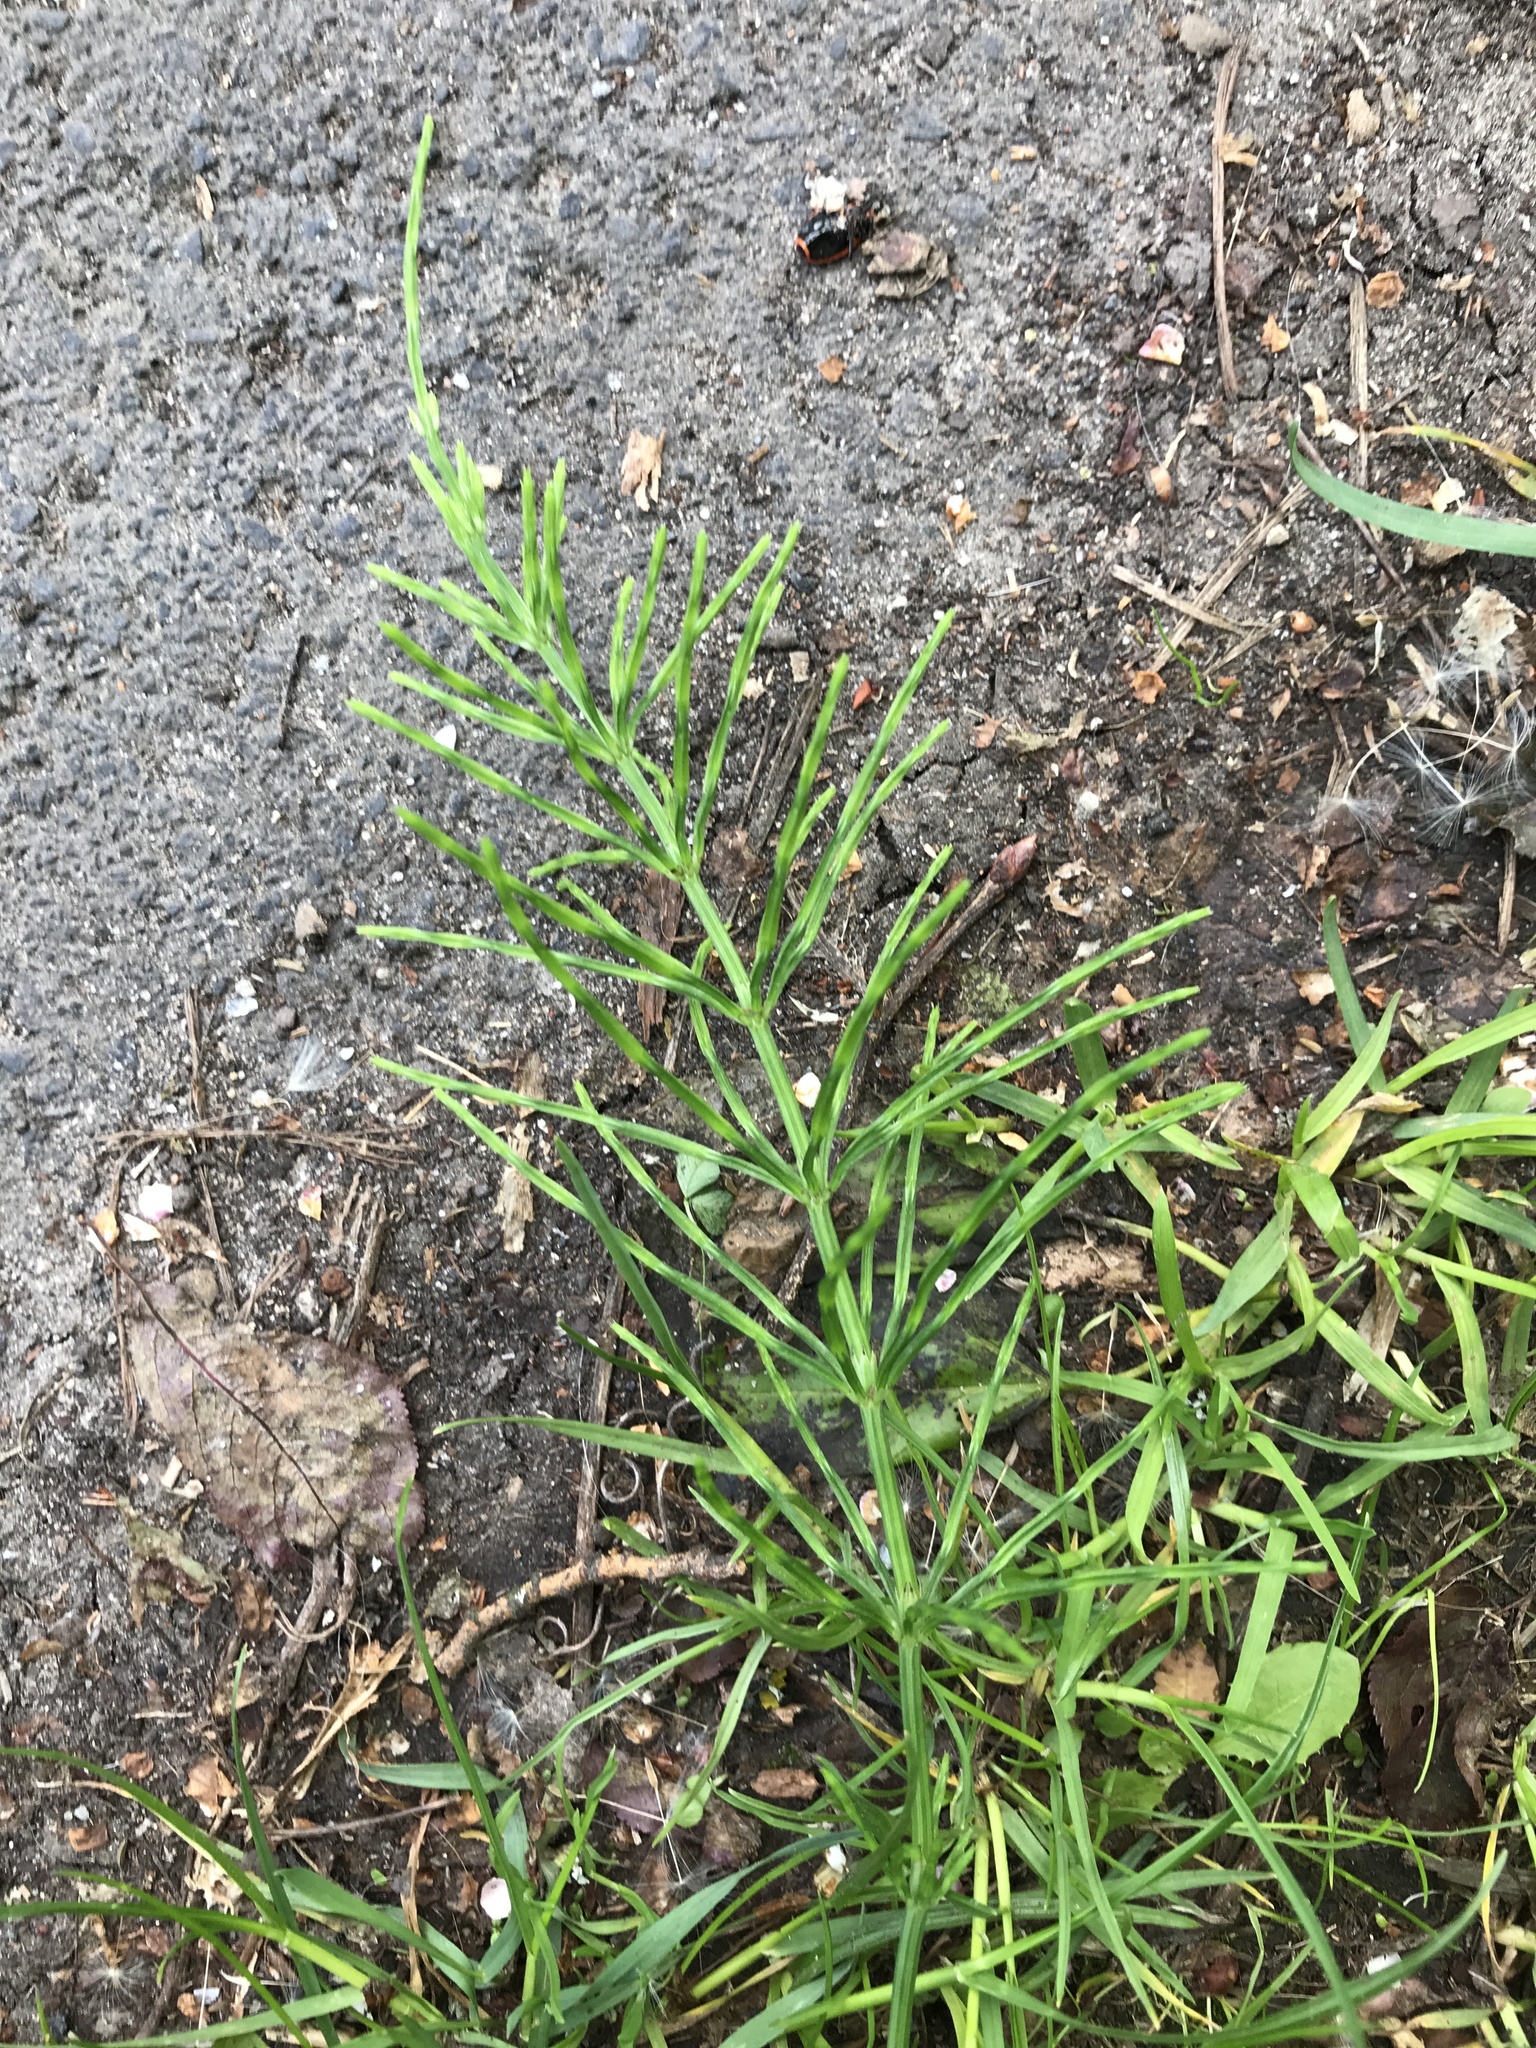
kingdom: Plantae
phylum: Tracheophyta
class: Polypodiopsida
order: Equisetales
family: Equisetaceae
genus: Equisetum
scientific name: Equisetum arvense
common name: Field horsetail
